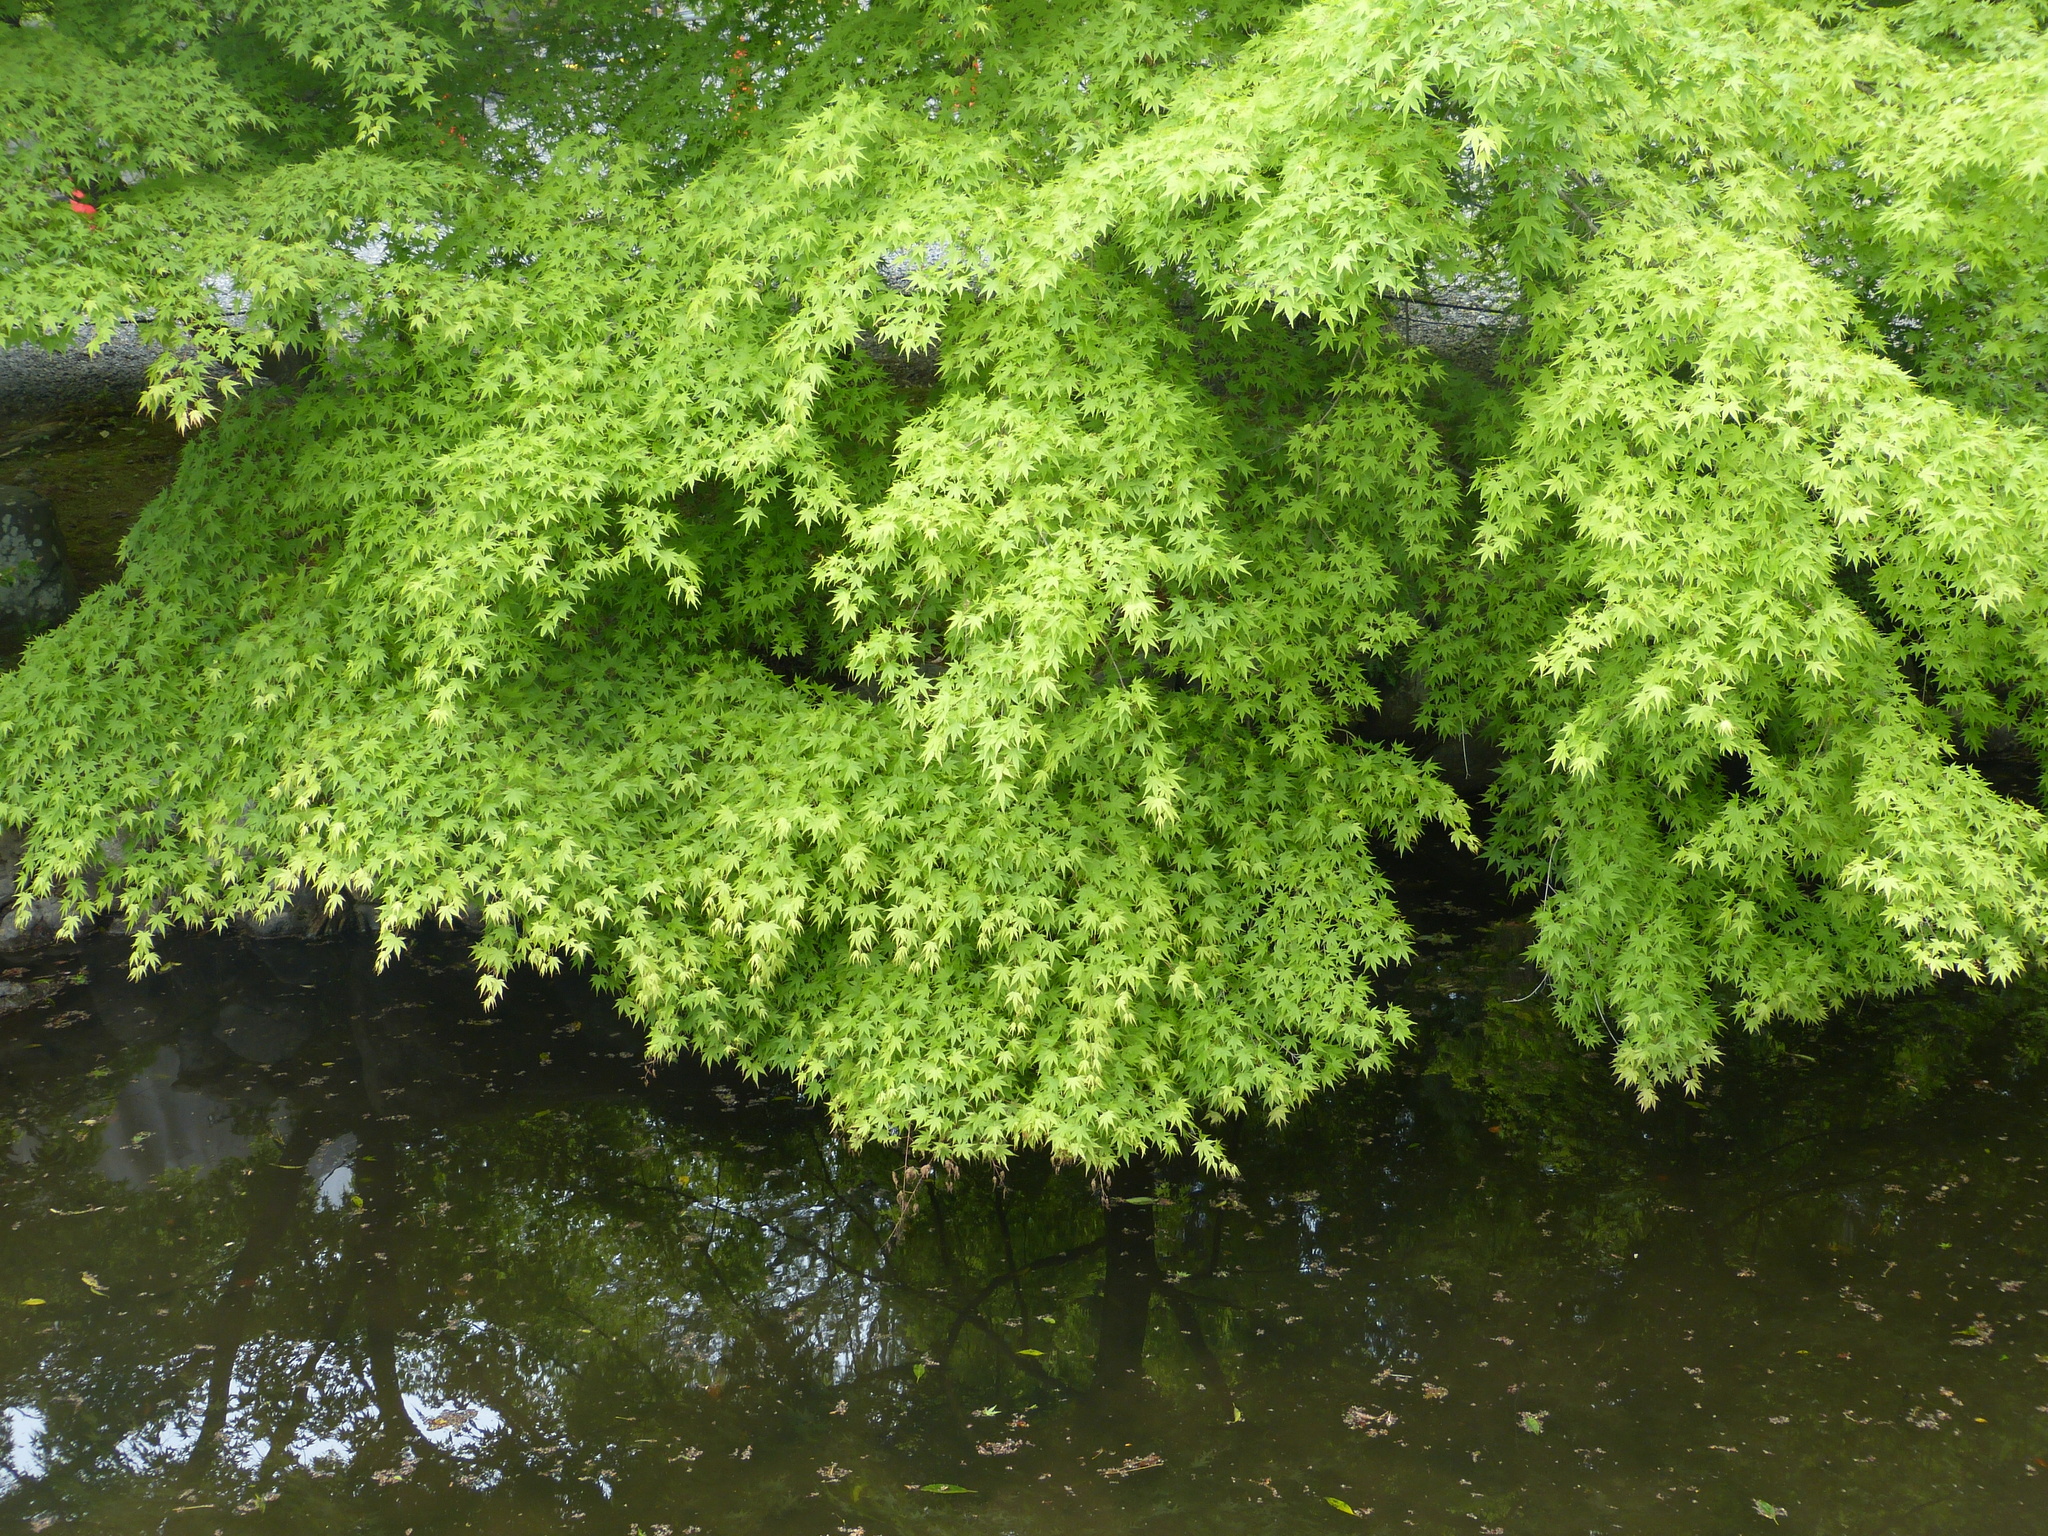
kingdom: Plantae
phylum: Tracheophyta
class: Magnoliopsida
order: Sapindales
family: Sapindaceae
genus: Acer
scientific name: Acer palmatum
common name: Japanese maple
